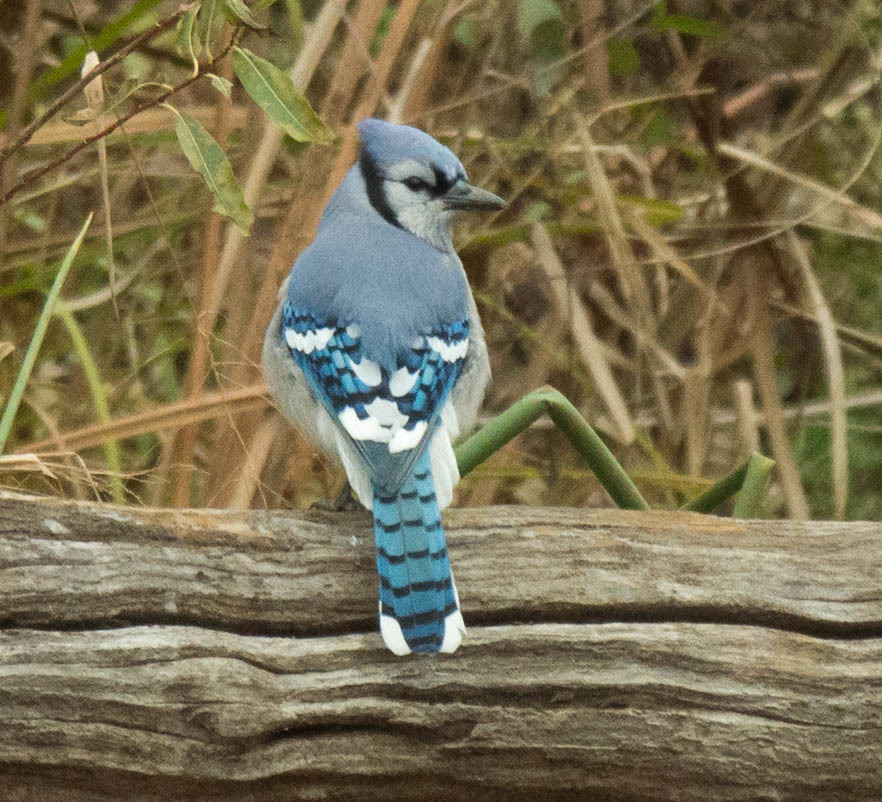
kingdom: Animalia
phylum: Chordata
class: Aves
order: Passeriformes
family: Corvidae
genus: Cyanocitta
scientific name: Cyanocitta cristata
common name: Blue jay
